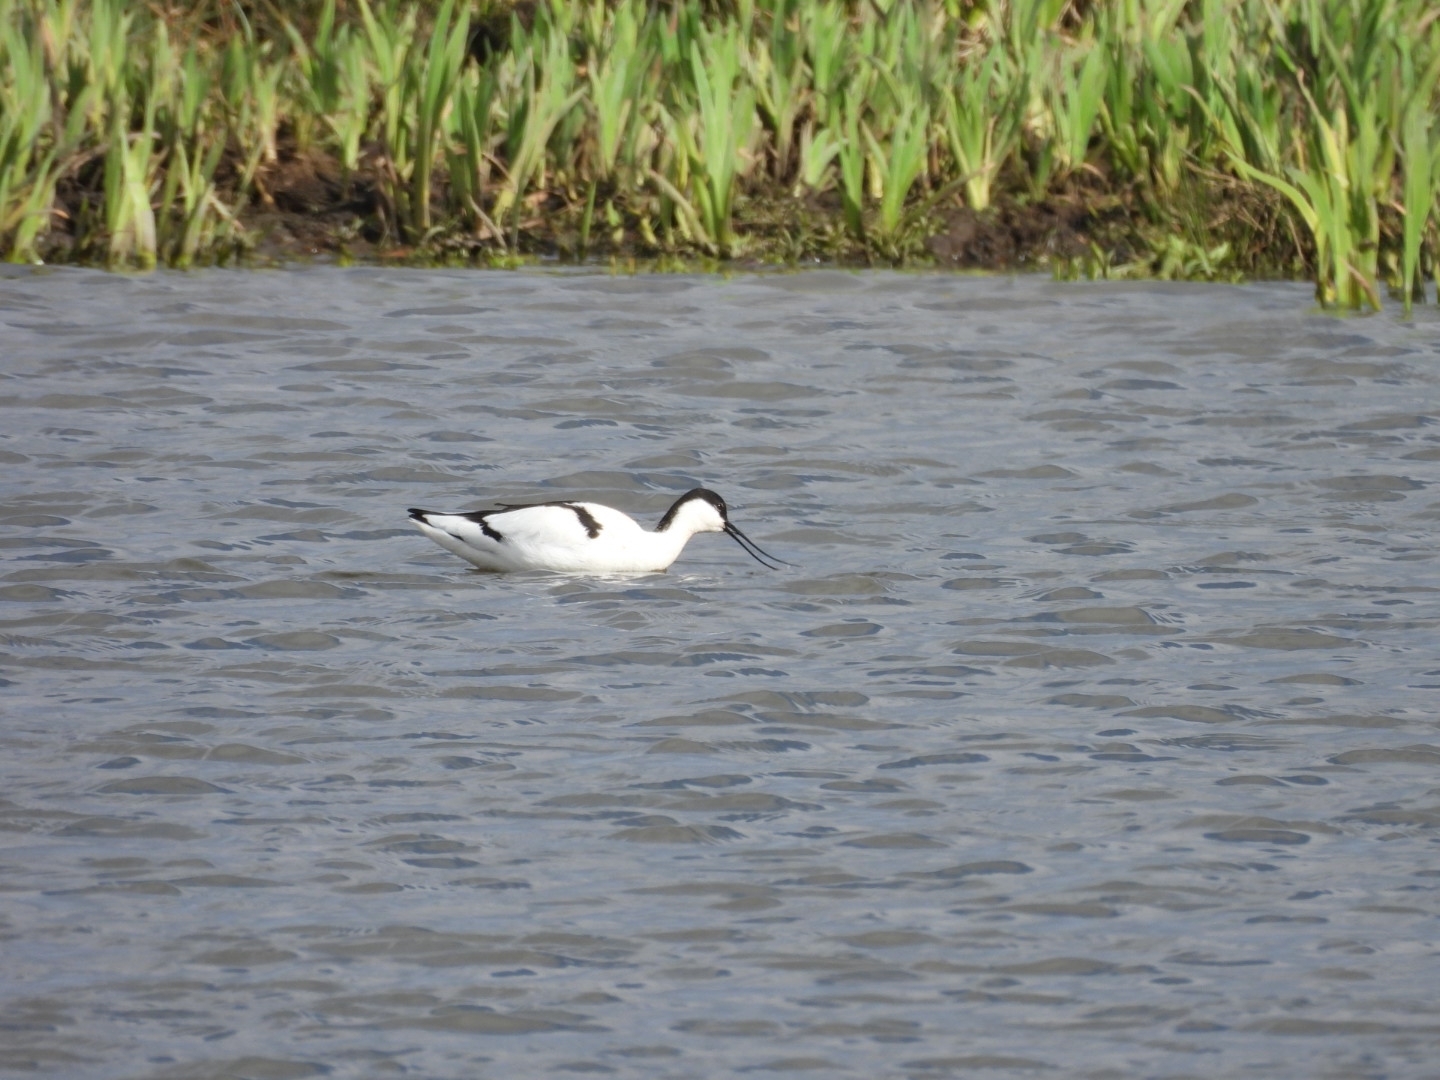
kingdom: Animalia
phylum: Chordata
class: Aves
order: Charadriiformes
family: Recurvirostridae
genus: Recurvirostra
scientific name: Recurvirostra avosetta
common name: Pied avocet
